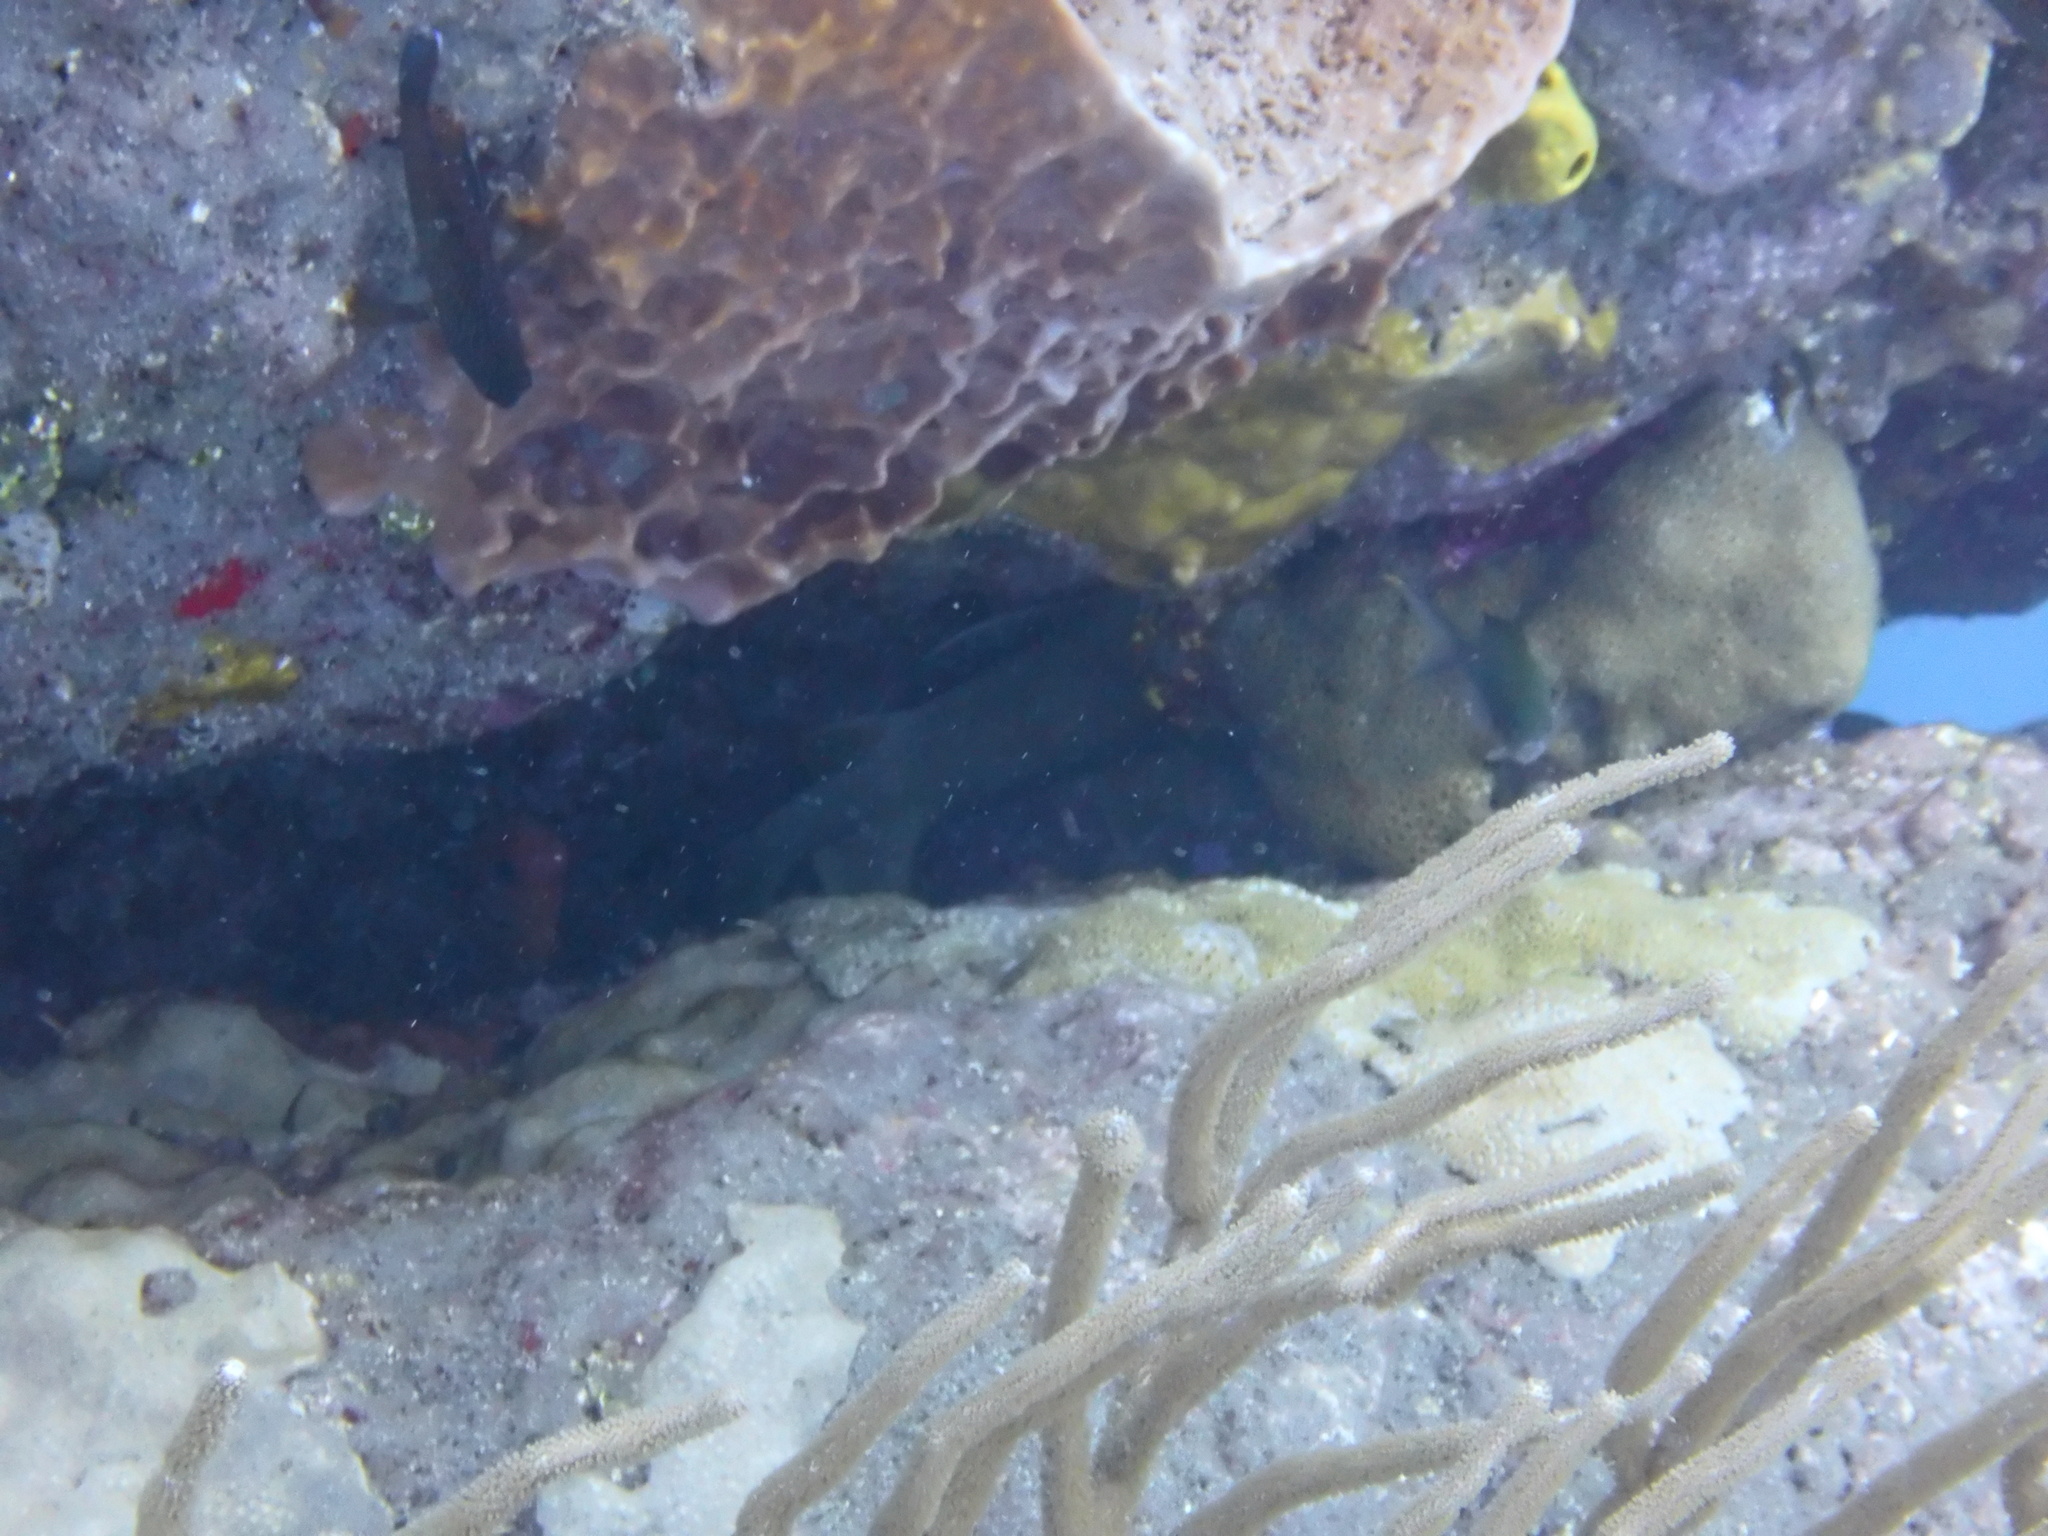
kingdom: Animalia
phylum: Chordata
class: Elasmobranchii
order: Orectolobiformes
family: Ginglymostomatidae
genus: Ginglymostoma
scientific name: Ginglymostoma cirratum
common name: Nurse shark
